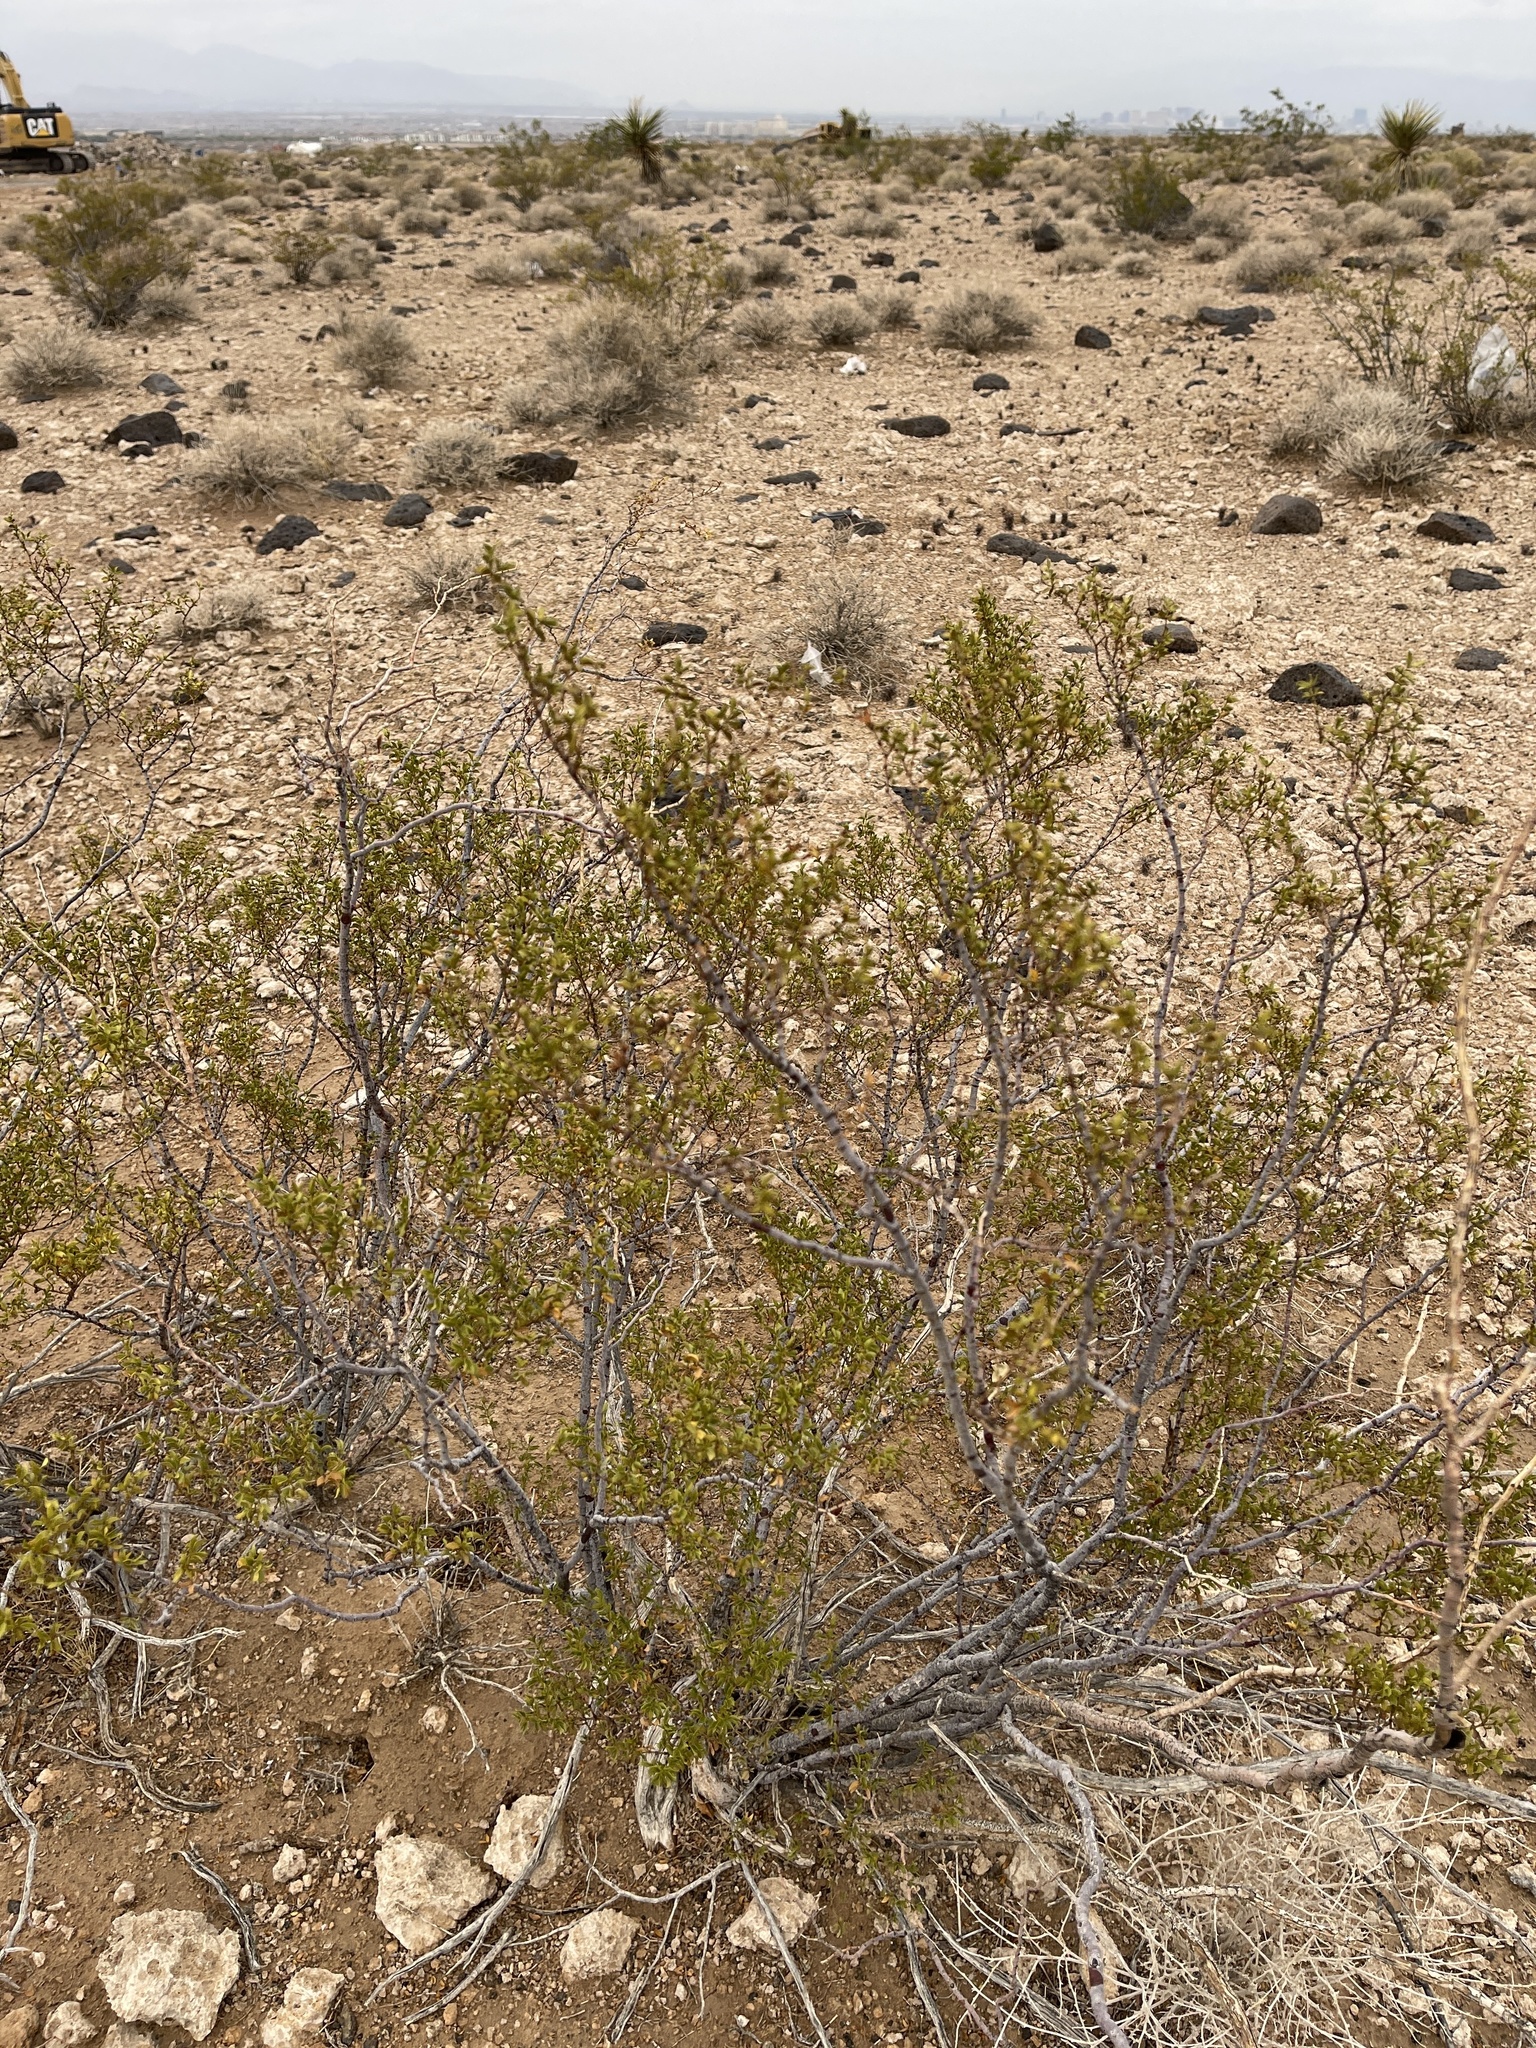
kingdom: Plantae
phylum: Tracheophyta
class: Magnoliopsida
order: Zygophyllales
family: Zygophyllaceae
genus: Larrea
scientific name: Larrea tridentata
